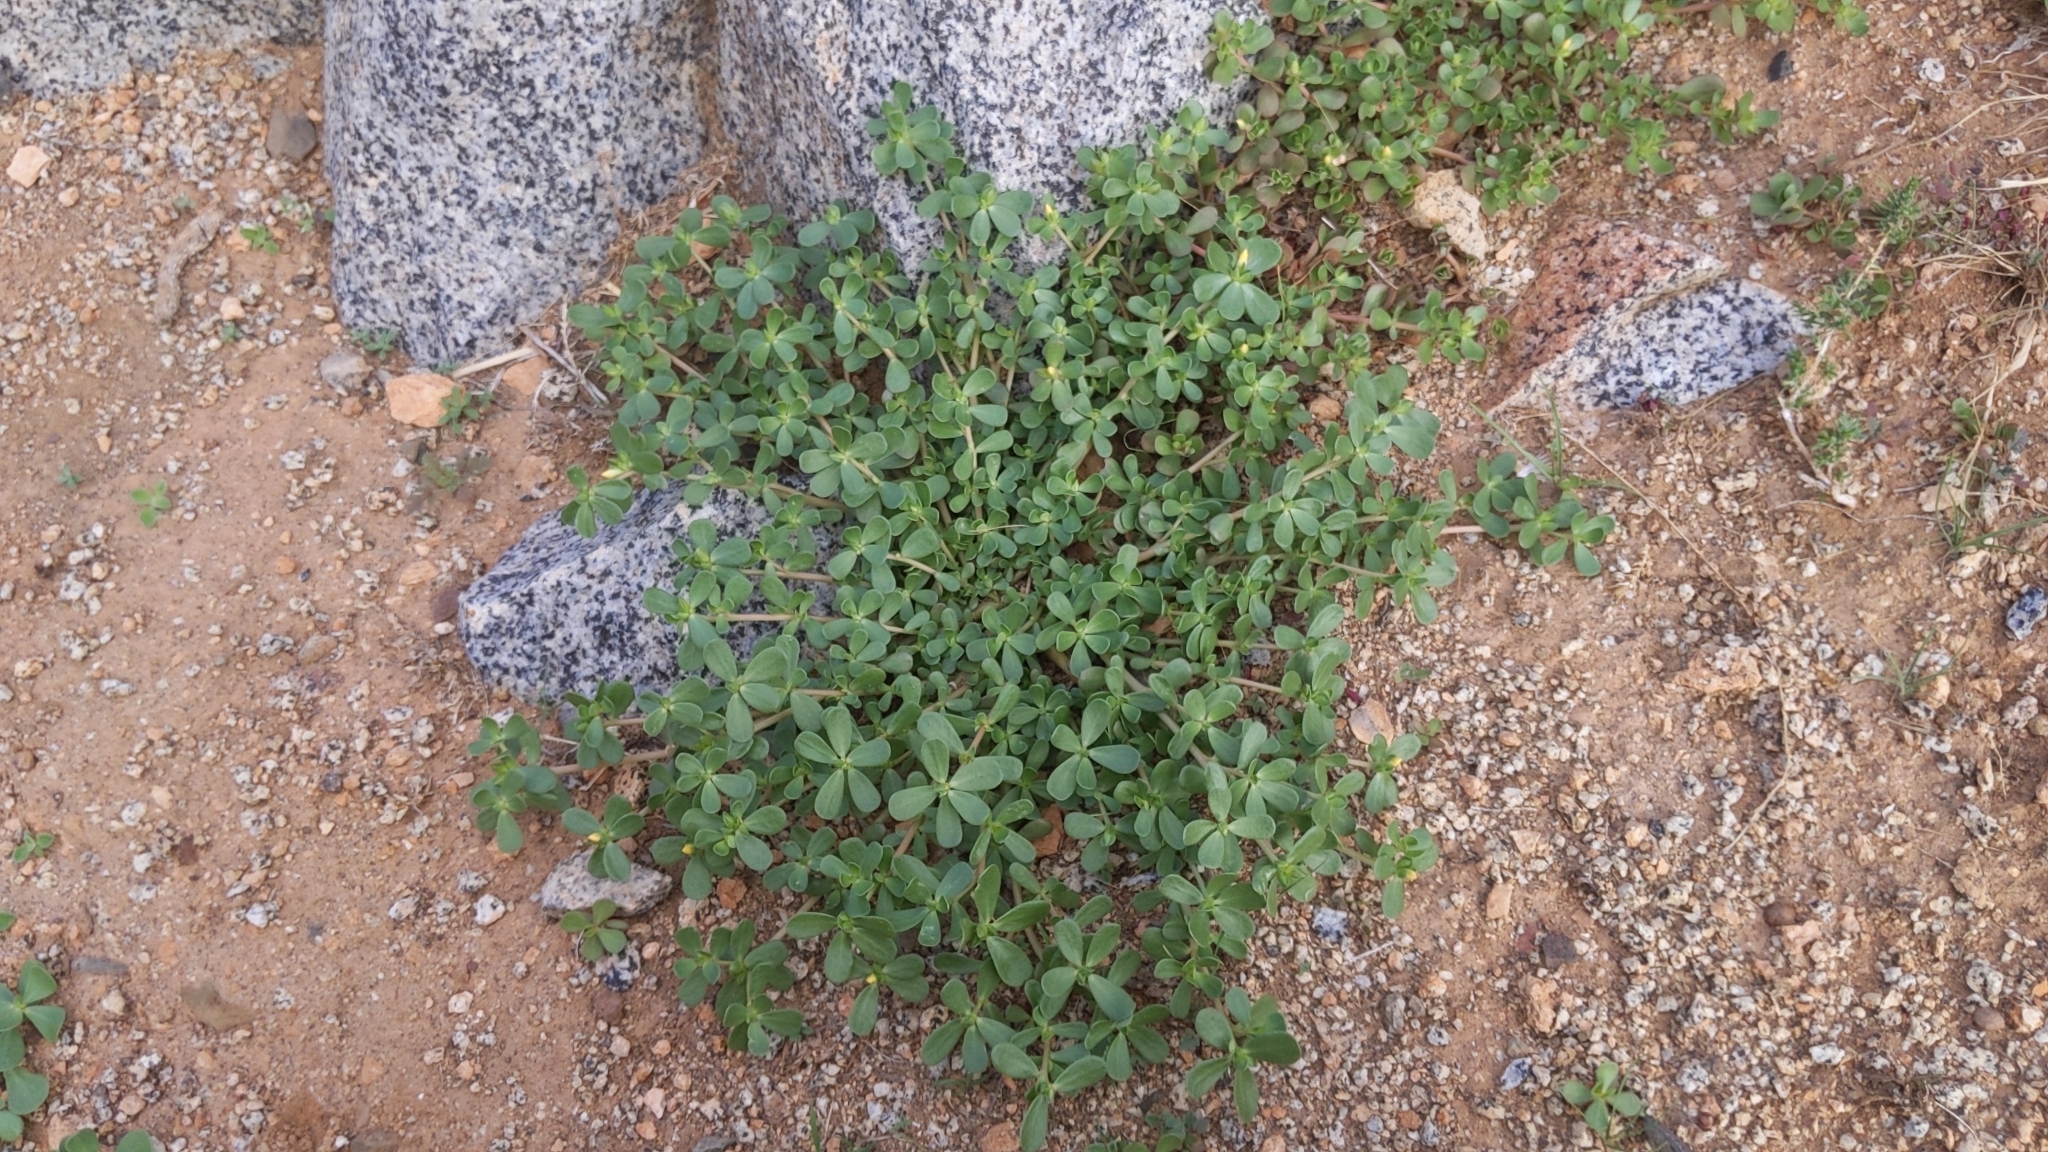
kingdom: Plantae
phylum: Tracheophyta
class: Magnoliopsida
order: Caryophyllales
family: Portulacaceae
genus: Portulaca
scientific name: Portulaca oleracea
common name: Common purslane
